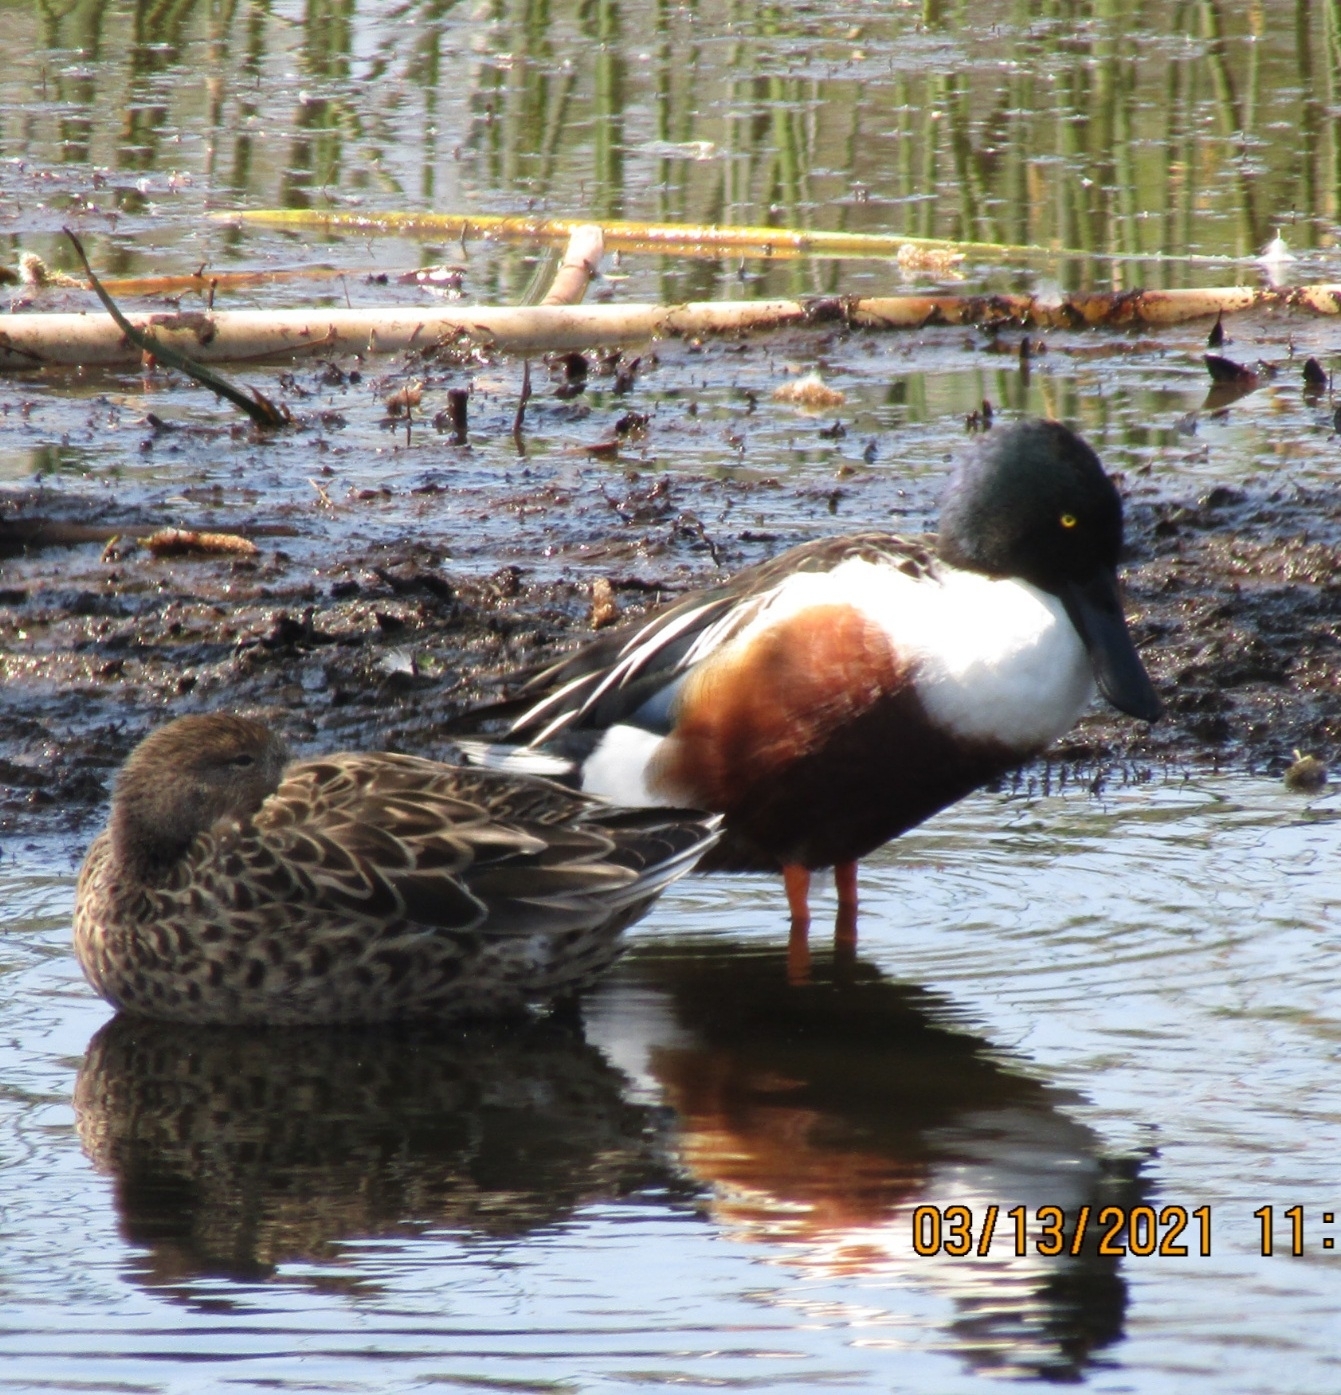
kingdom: Animalia
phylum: Chordata
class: Aves
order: Anseriformes
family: Anatidae
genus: Spatula
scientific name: Spatula clypeata
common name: Northern shoveler
